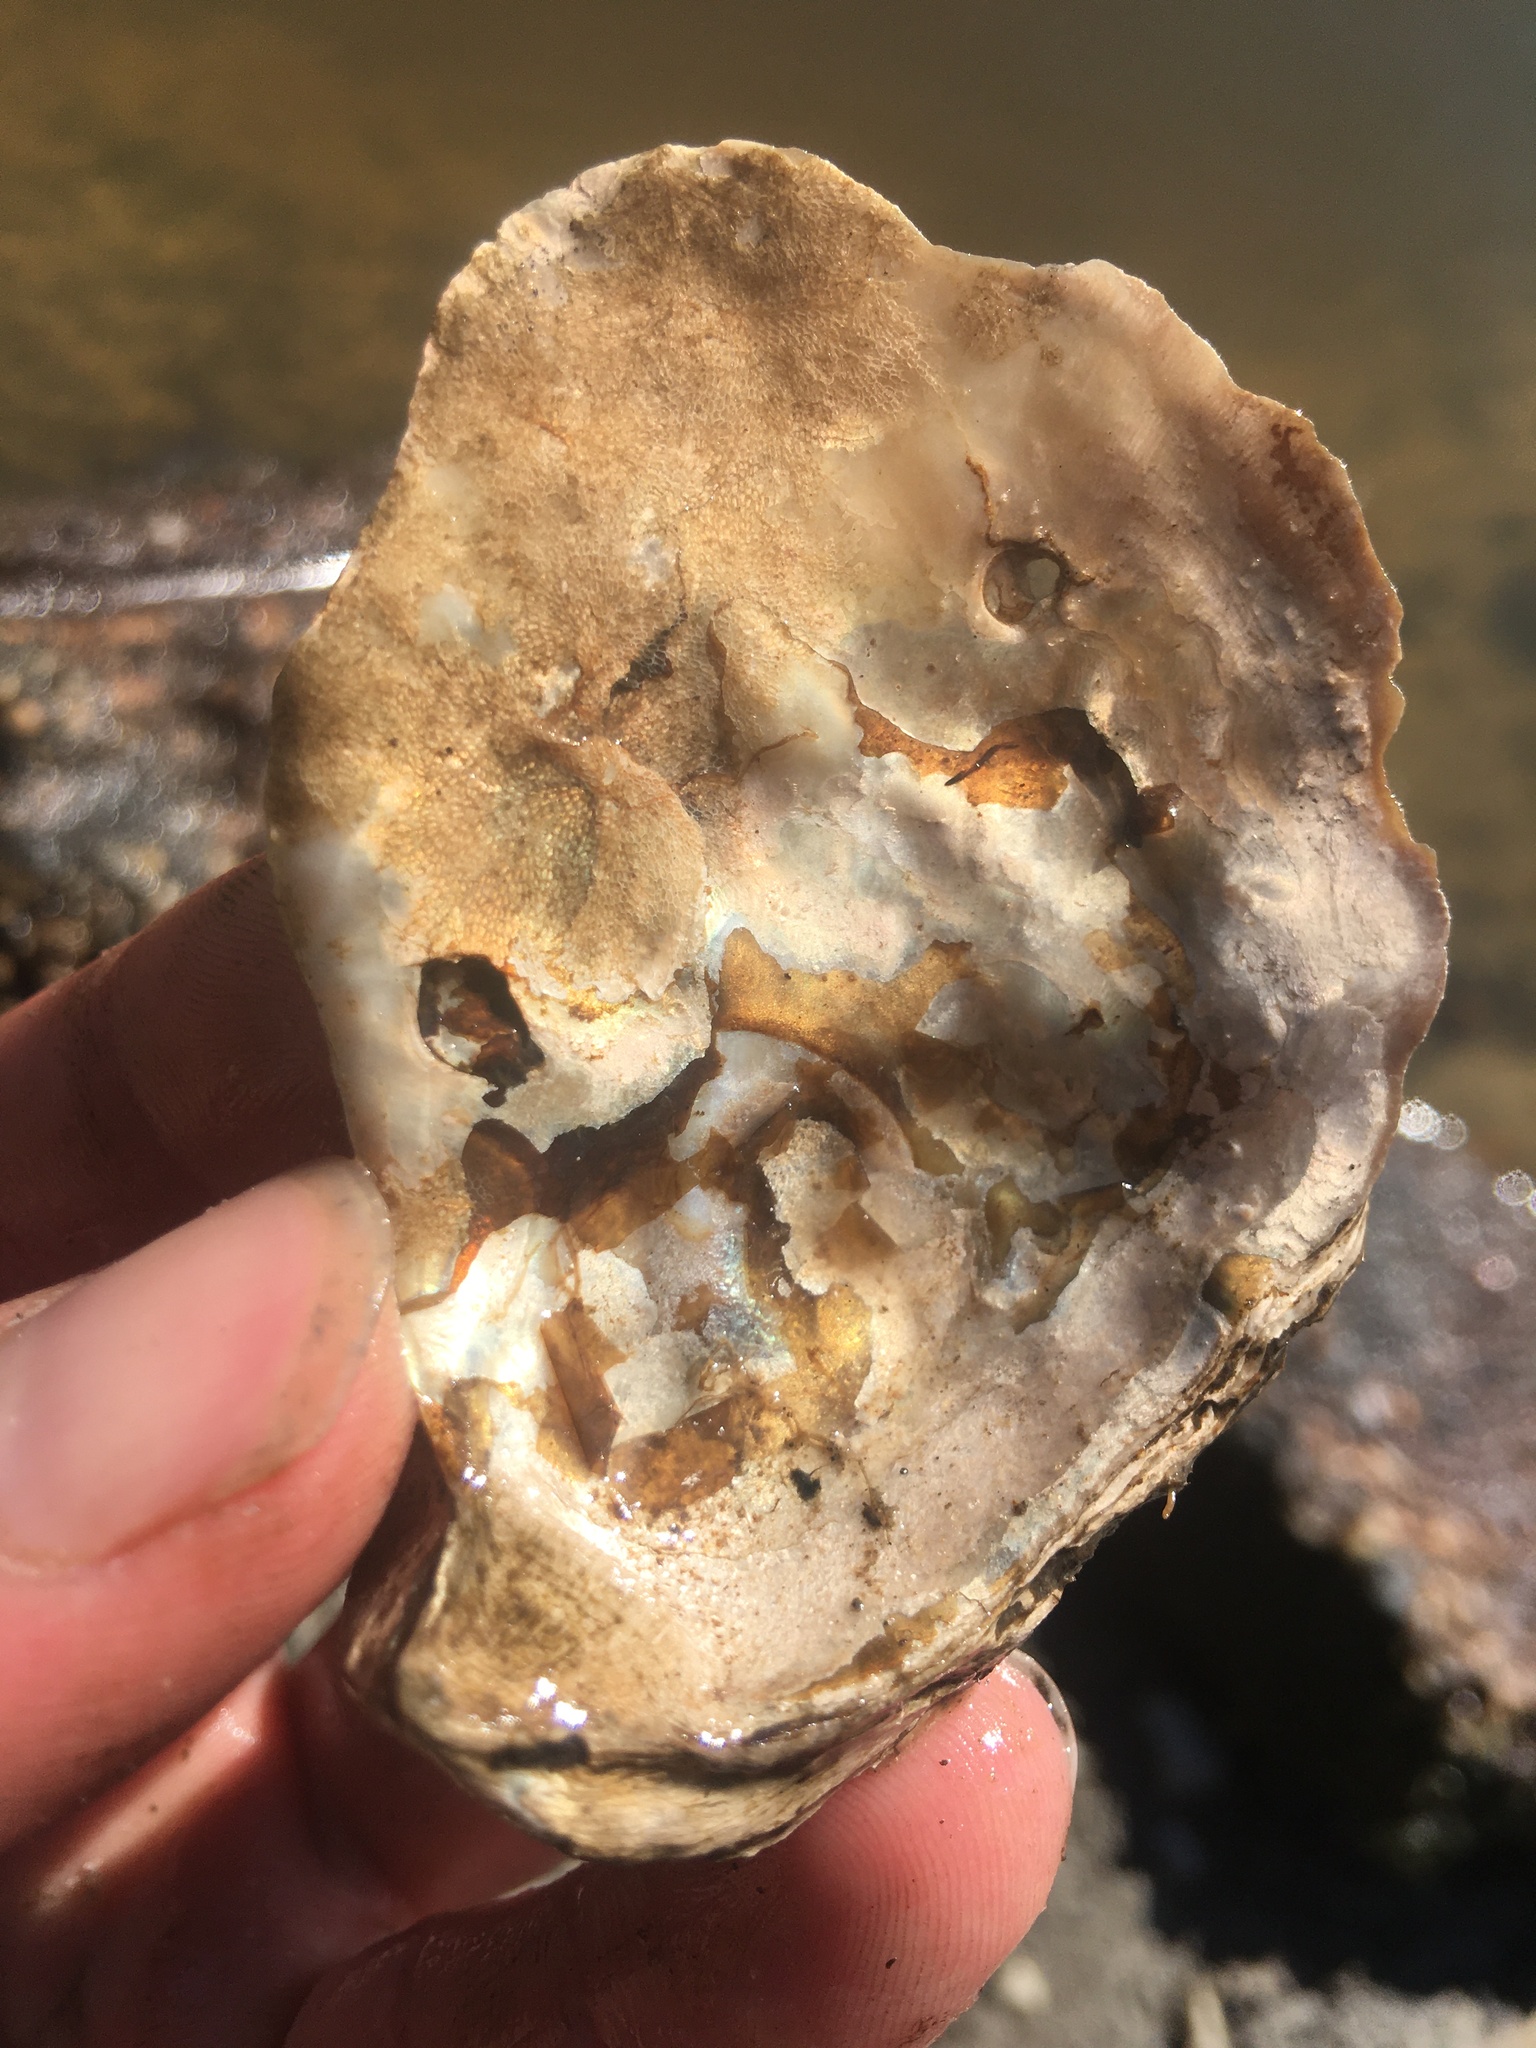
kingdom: Animalia
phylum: Mollusca
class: Bivalvia
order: Ostreida
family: Ostreidae
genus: Crassostrea
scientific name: Crassostrea virginica
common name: American oyster
